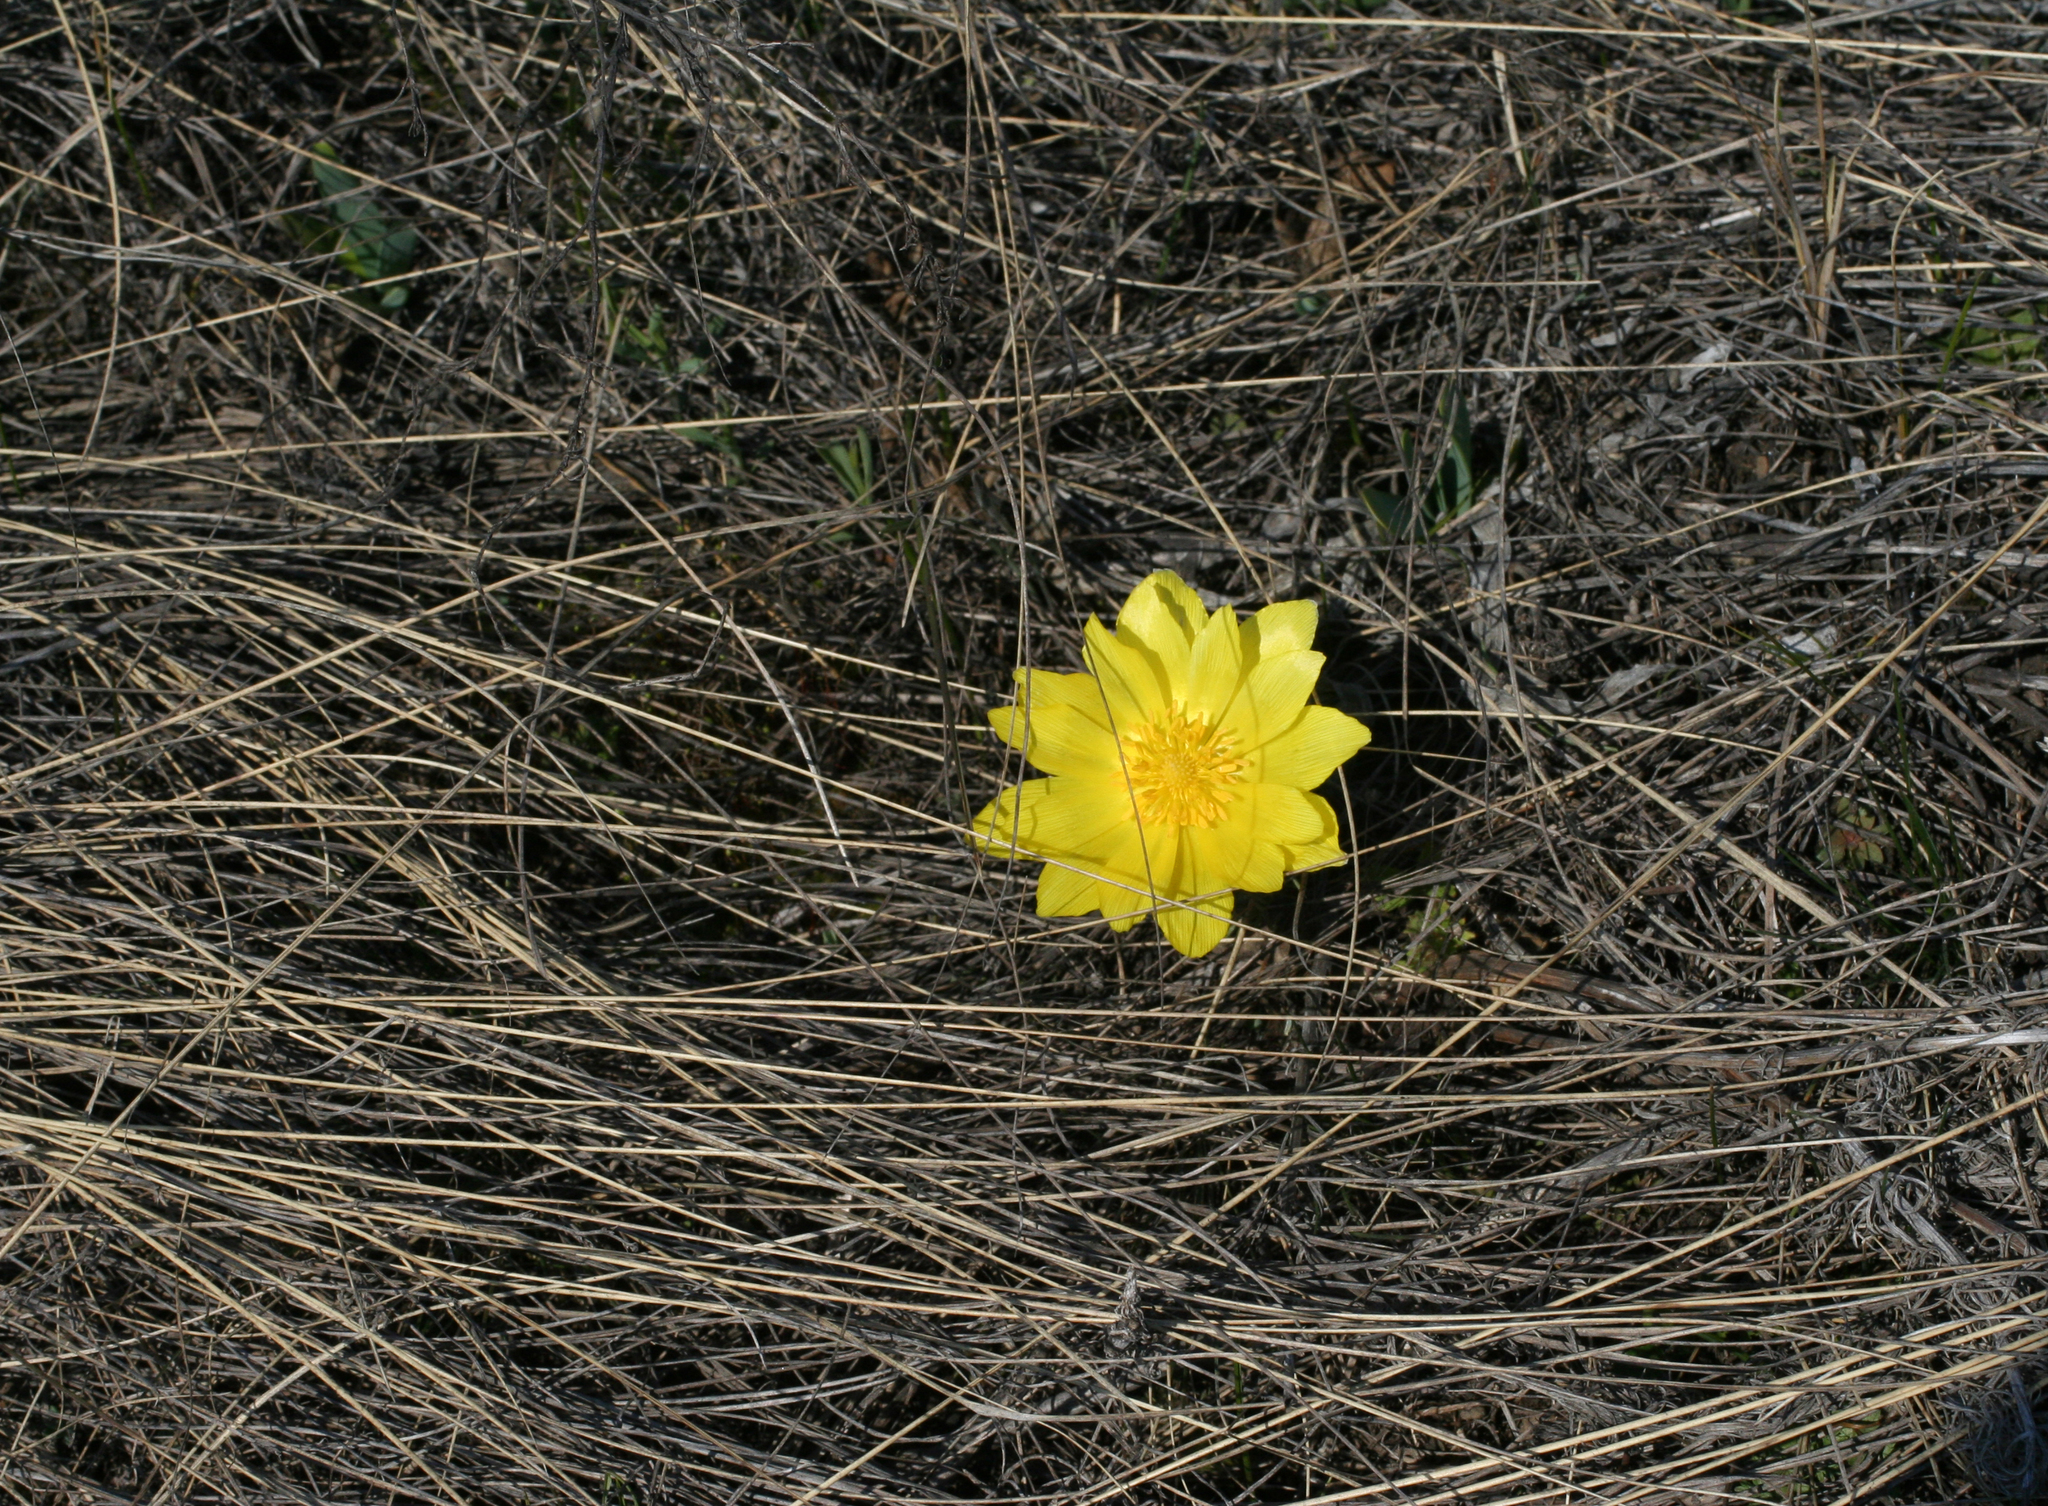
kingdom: Plantae
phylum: Tracheophyta
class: Magnoliopsida
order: Ranunculales
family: Ranunculaceae
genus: Adonis
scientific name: Adonis vernalis
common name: Yellow pheasants-eye
